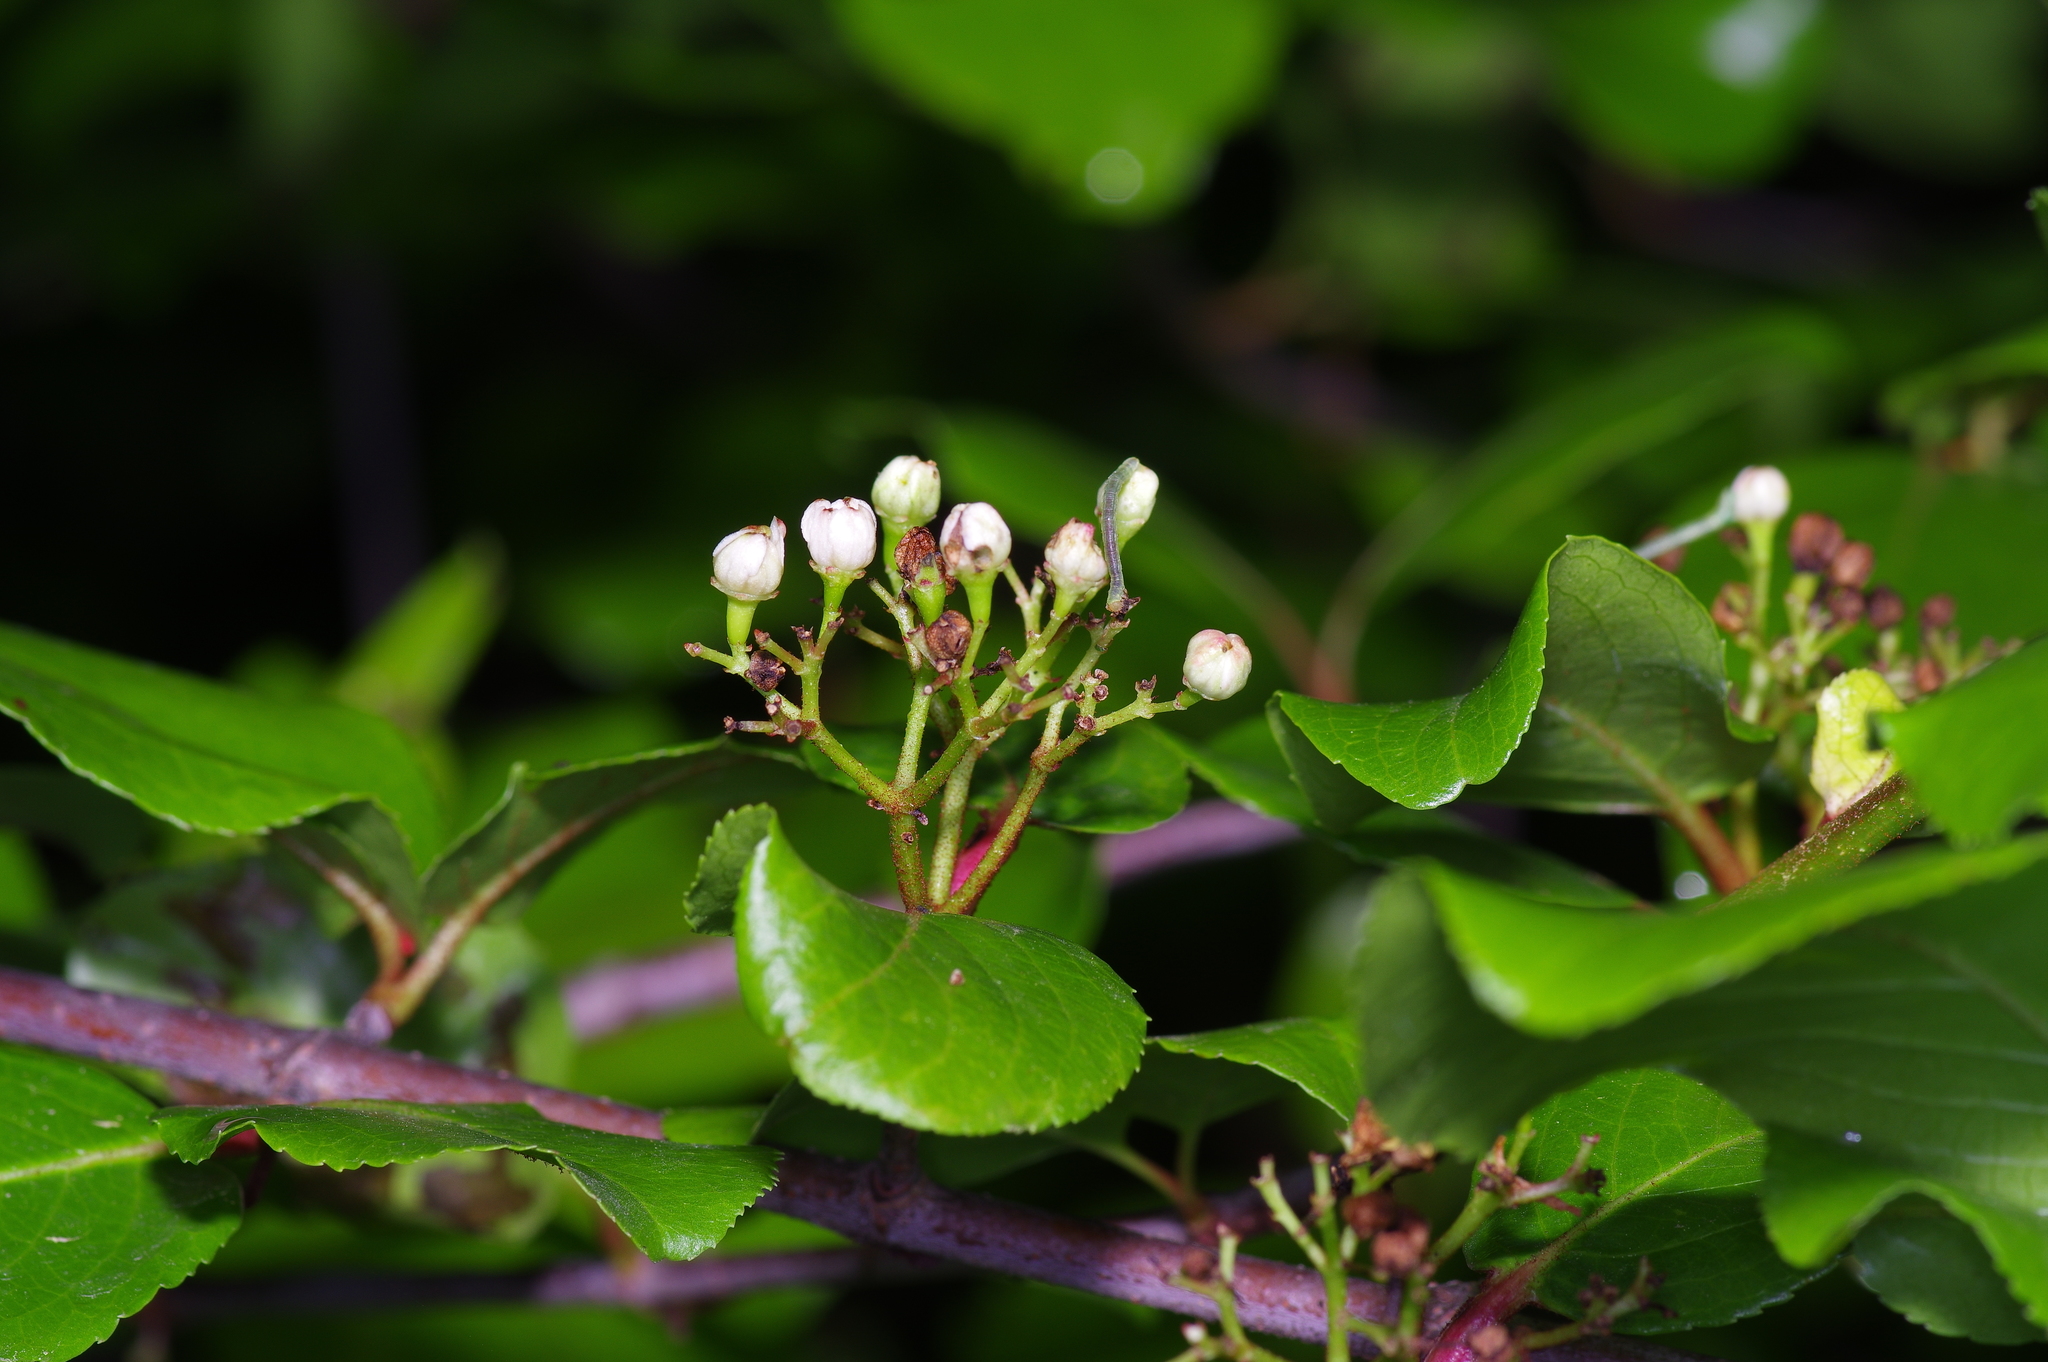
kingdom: Plantae
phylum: Tracheophyta
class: Magnoliopsida
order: Dipsacales
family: Viburnaceae
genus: Viburnum
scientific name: Viburnum rufidulum
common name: Blue haw
